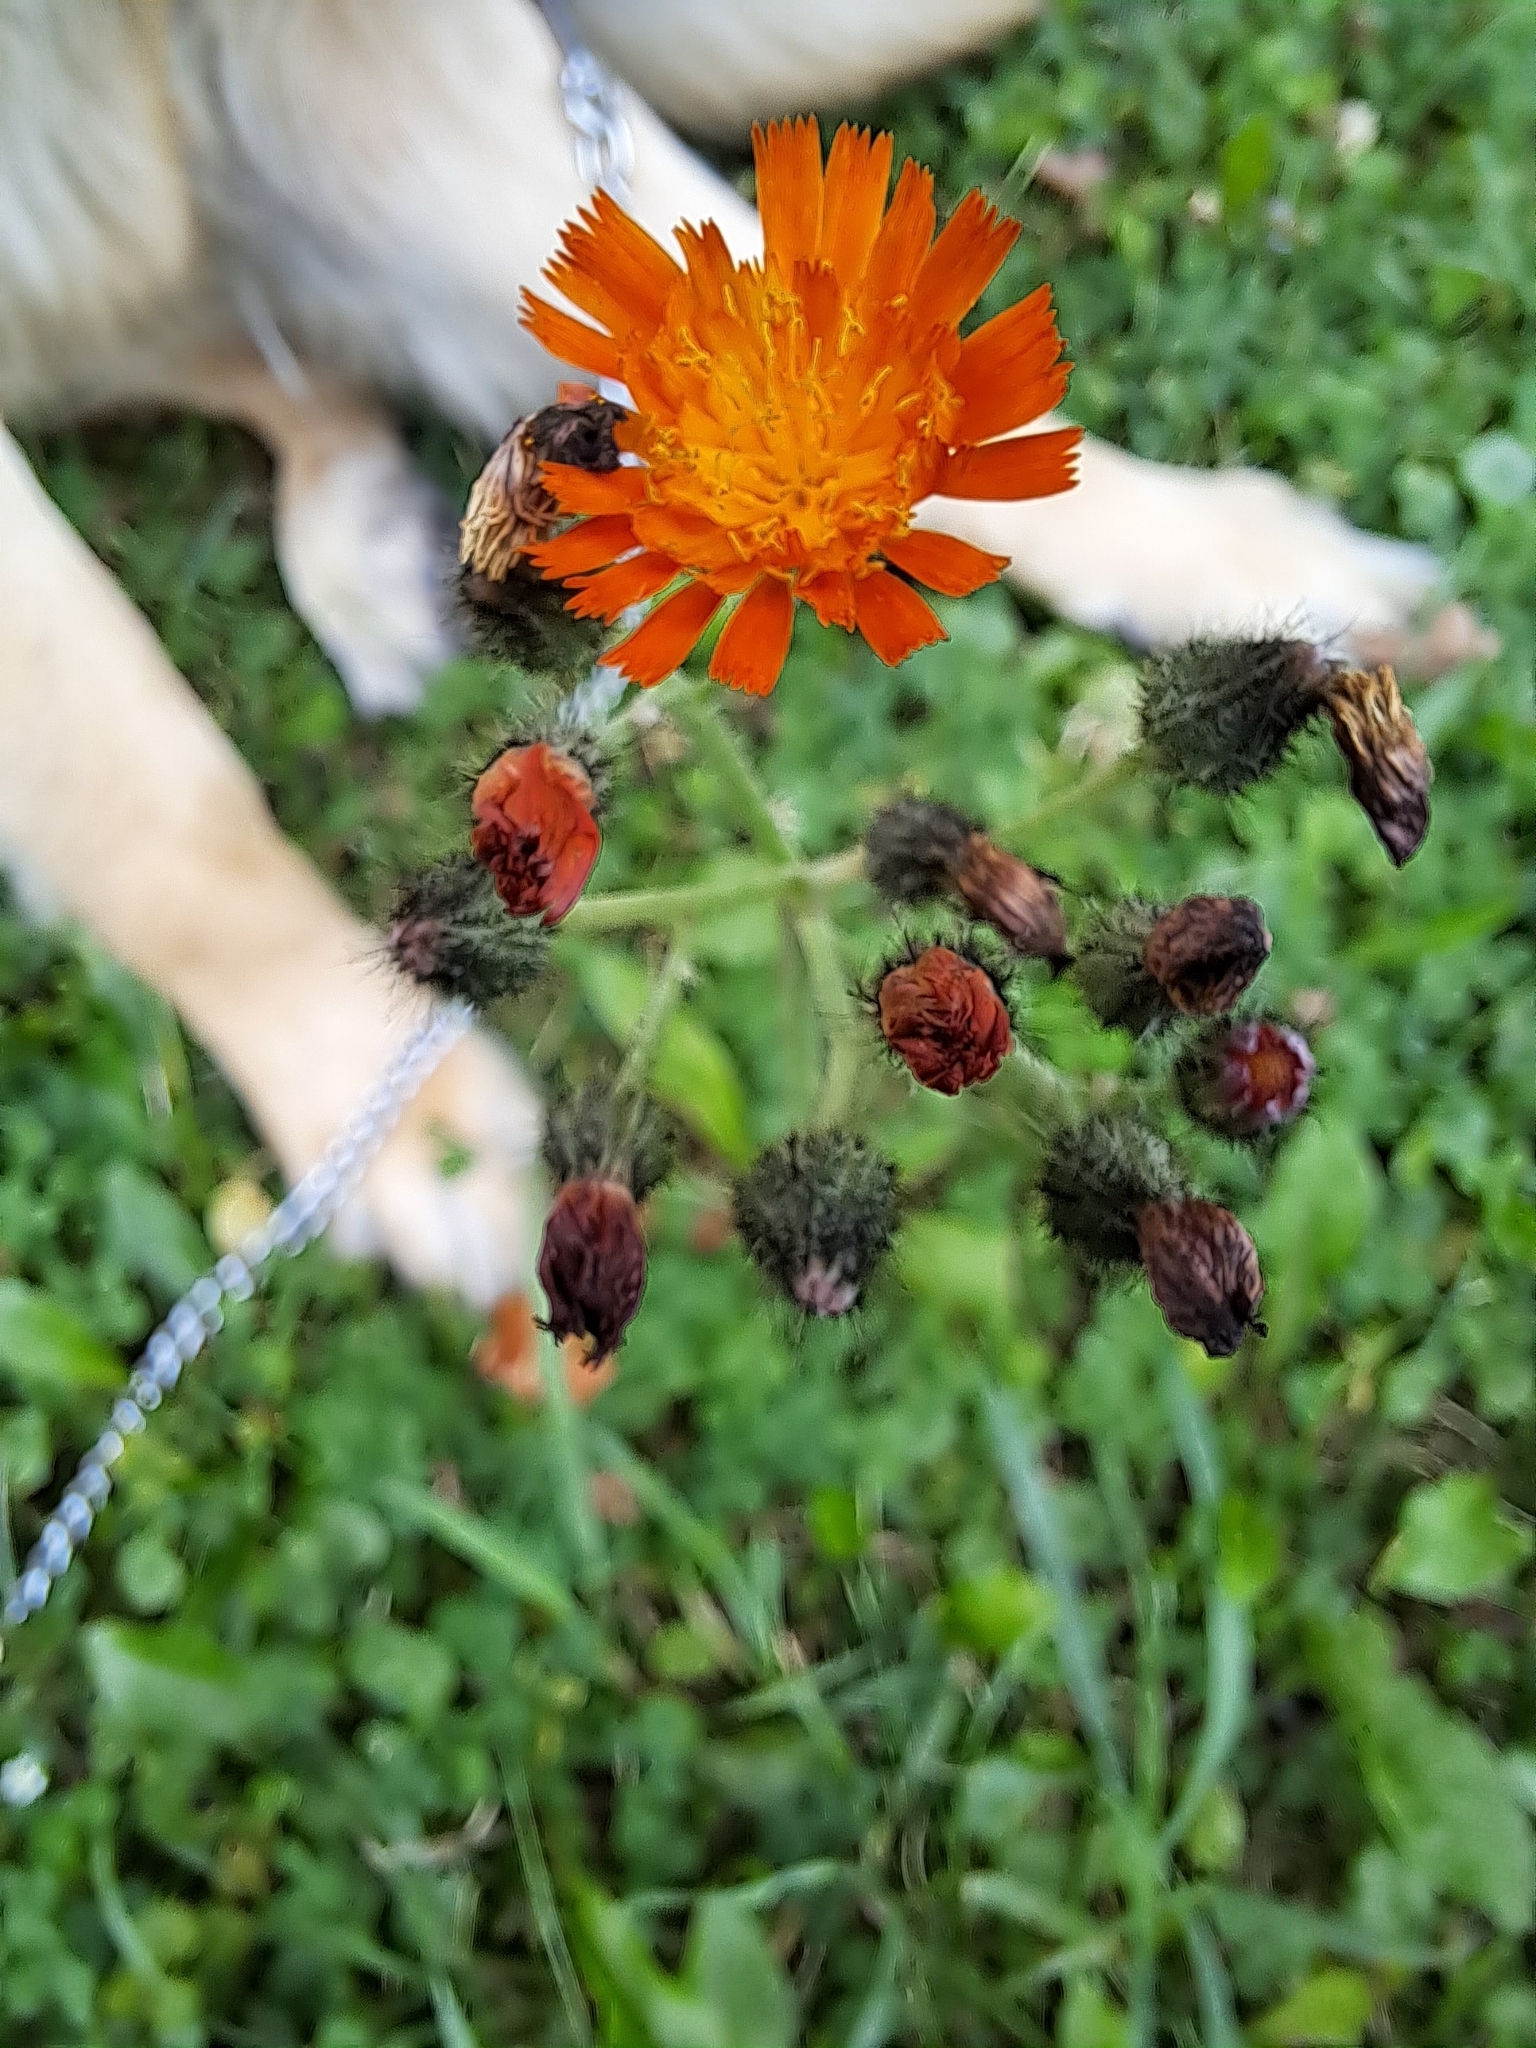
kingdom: Plantae
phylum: Tracheophyta
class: Magnoliopsida
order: Asterales
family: Asteraceae
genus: Pilosella
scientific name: Pilosella aurantiaca
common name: Fox-and-cubs
